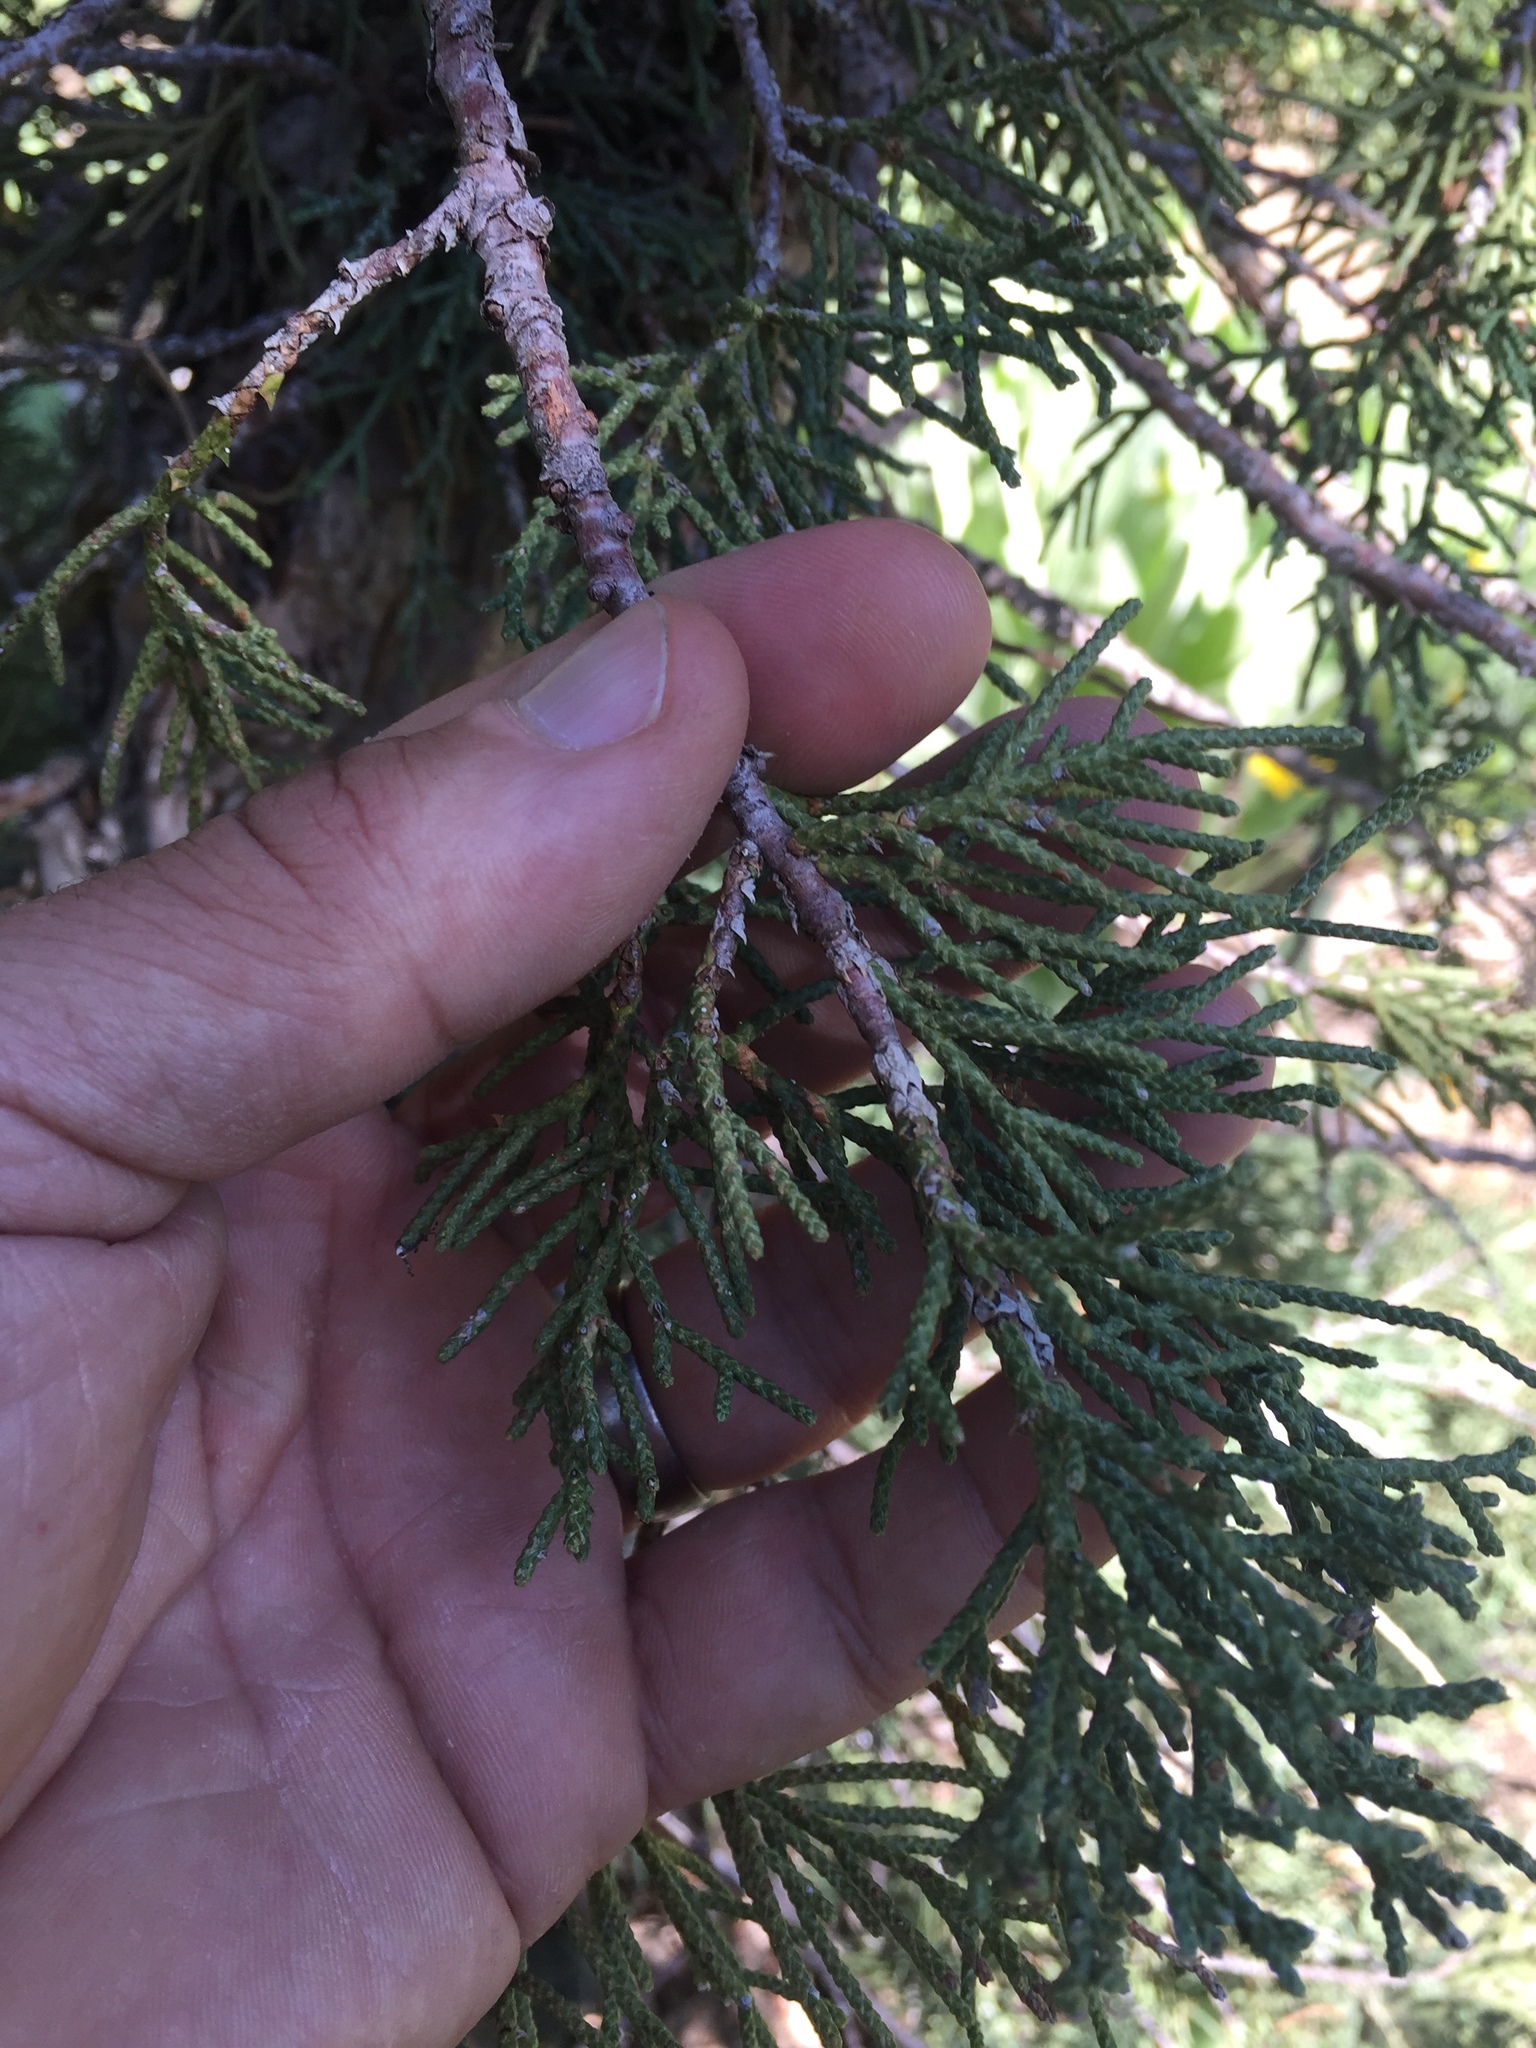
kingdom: Plantae
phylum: Tracheophyta
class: Pinopsida
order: Pinales
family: Cupressaceae
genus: Juniperus
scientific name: Juniperus occidentalis
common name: Western juniper
